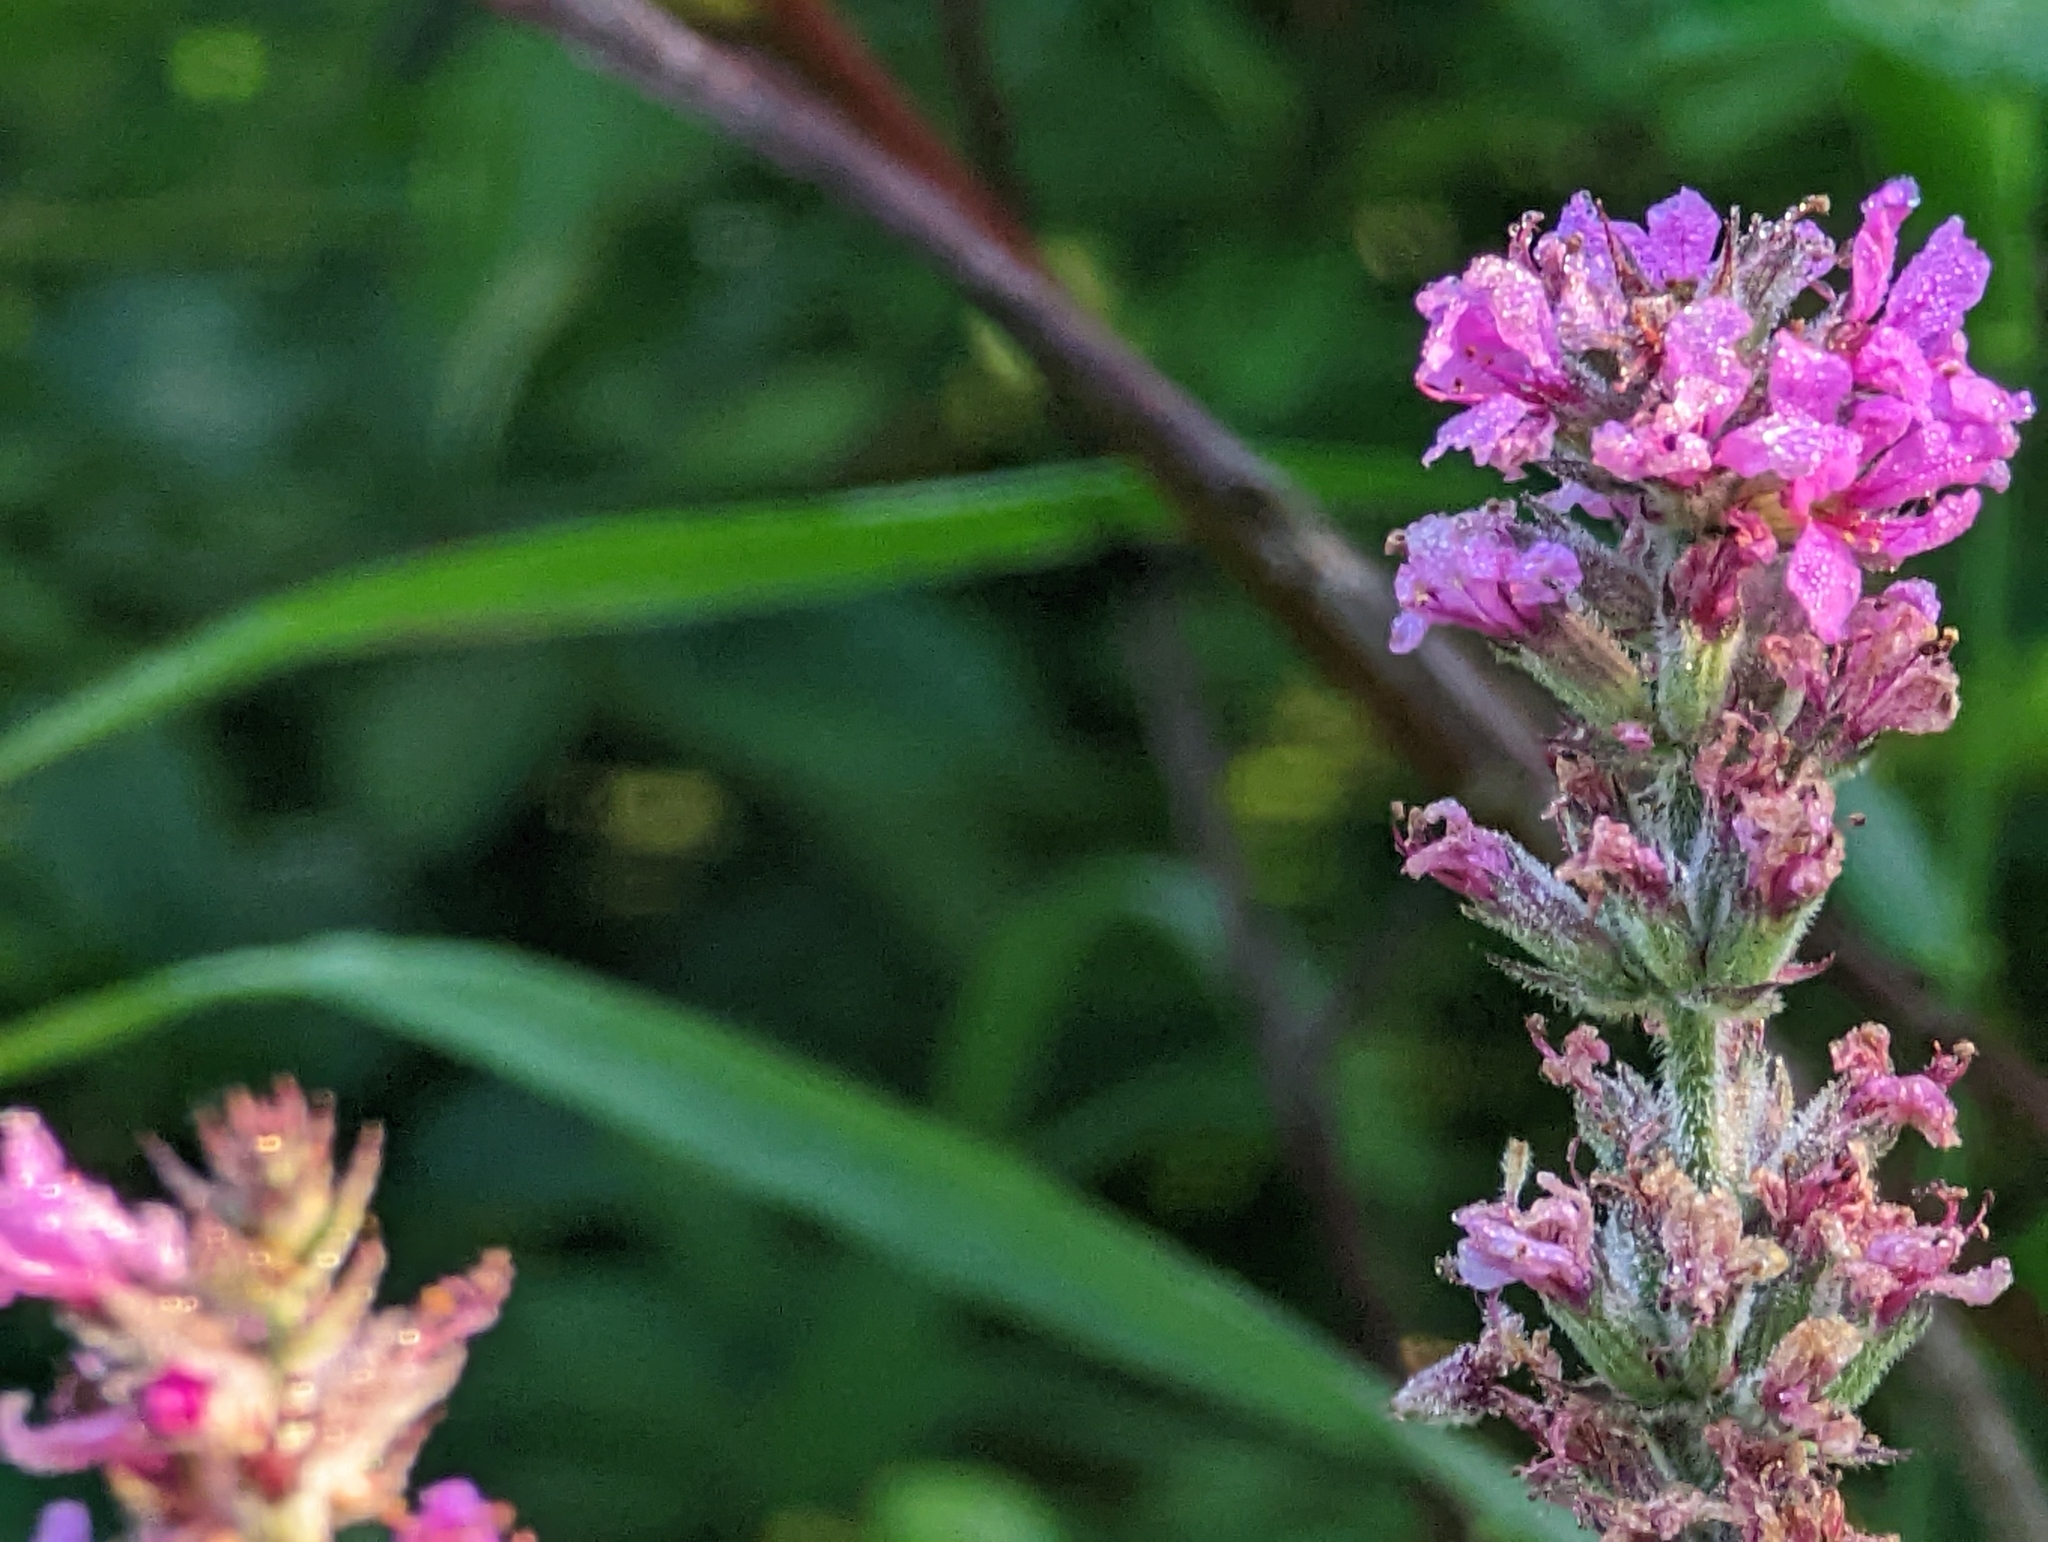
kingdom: Plantae
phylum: Tracheophyta
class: Magnoliopsida
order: Myrtales
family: Lythraceae
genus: Lythrum
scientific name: Lythrum salicaria
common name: Purple loosestrife
